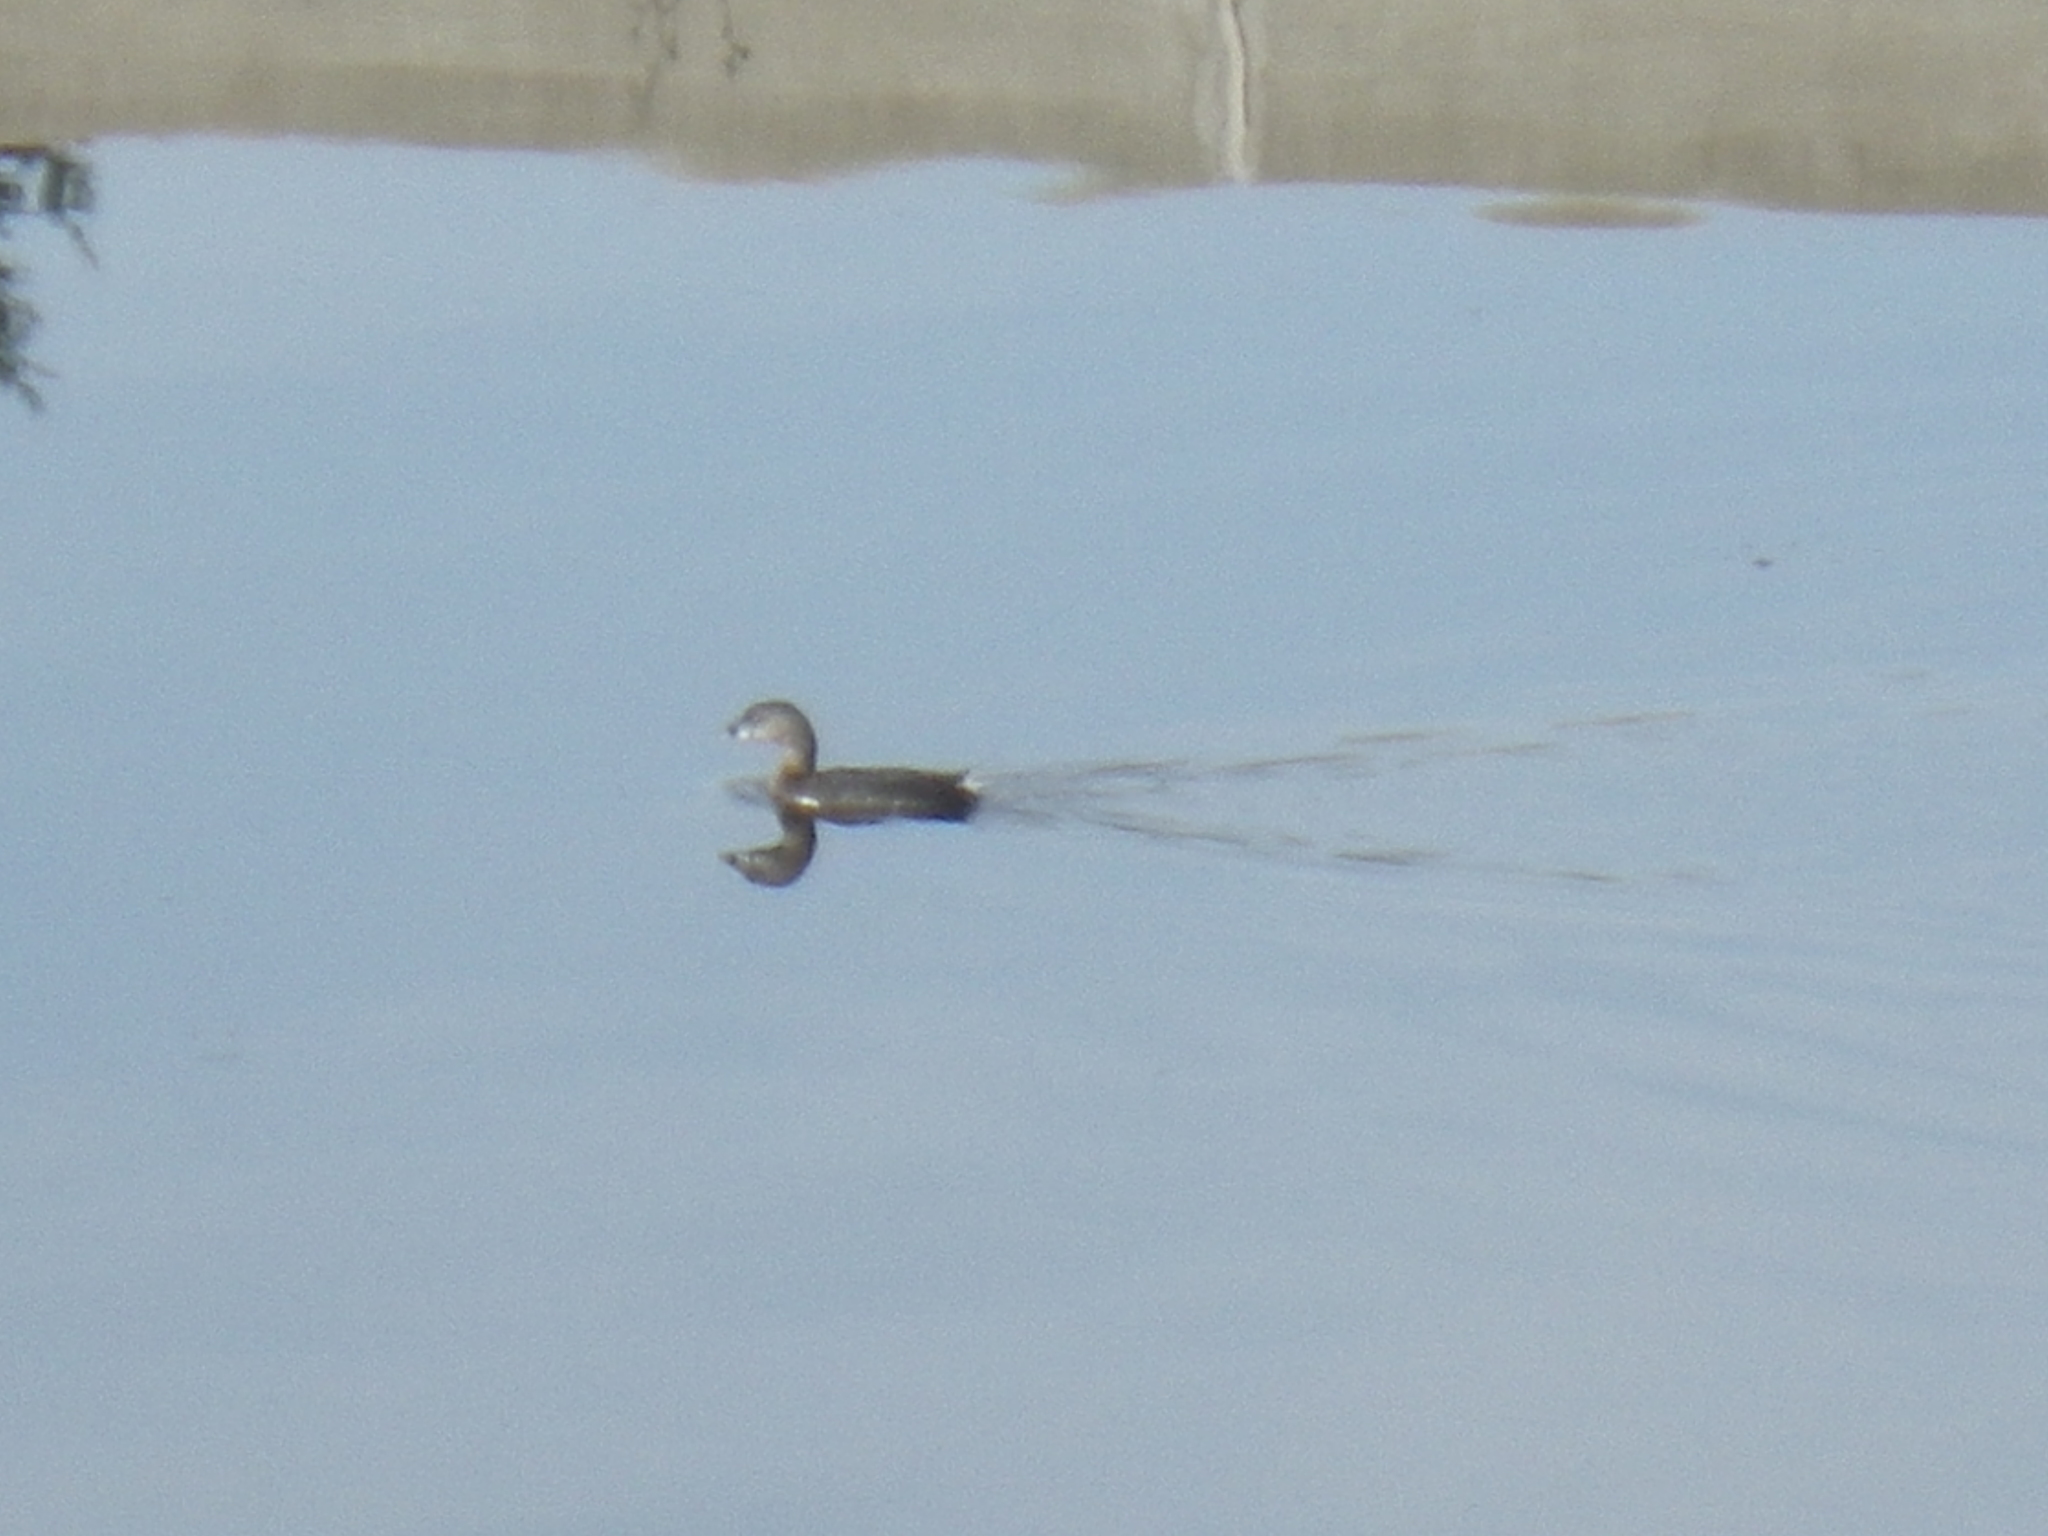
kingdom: Animalia
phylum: Chordata
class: Aves
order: Podicipediformes
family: Podicipedidae
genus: Podilymbus
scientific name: Podilymbus podiceps
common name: Pied-billed grebe
